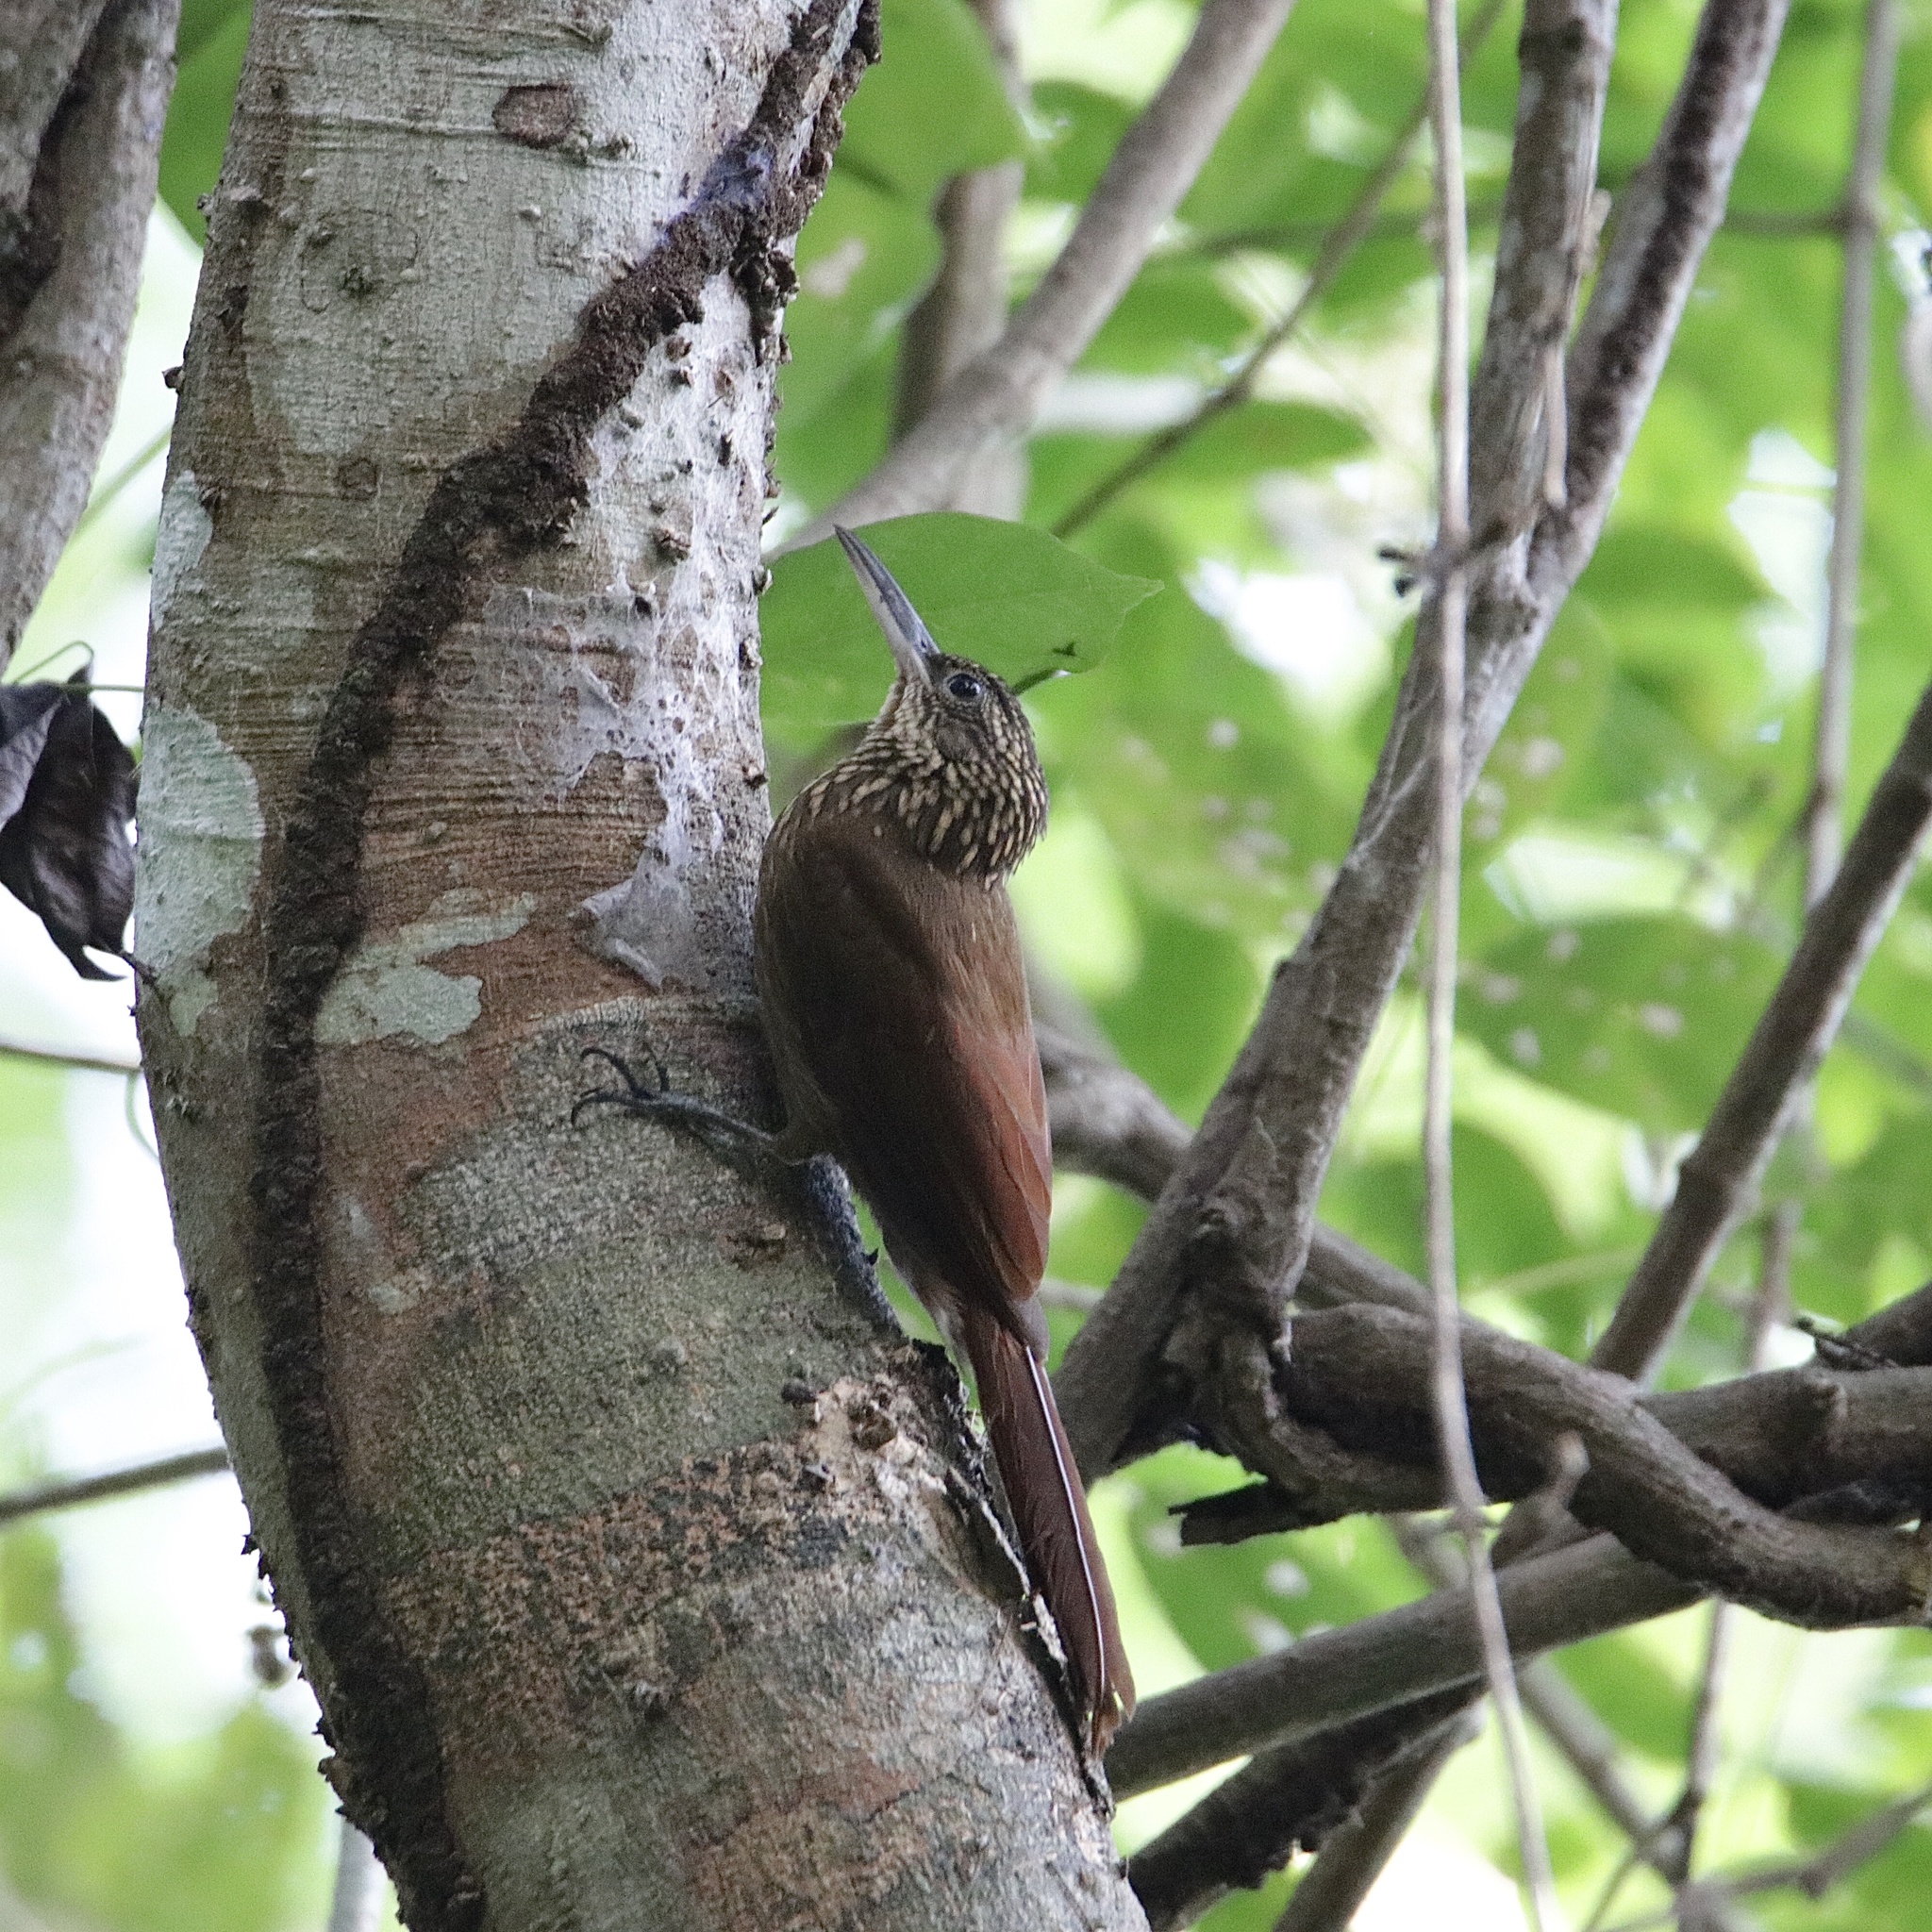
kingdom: Animalia
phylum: Chordata
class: Aves
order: Passeriformes
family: Furnariidae
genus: Xiphorhynchus
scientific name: Xiphorhynchus susurrans
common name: Cocoa woodcreeper
